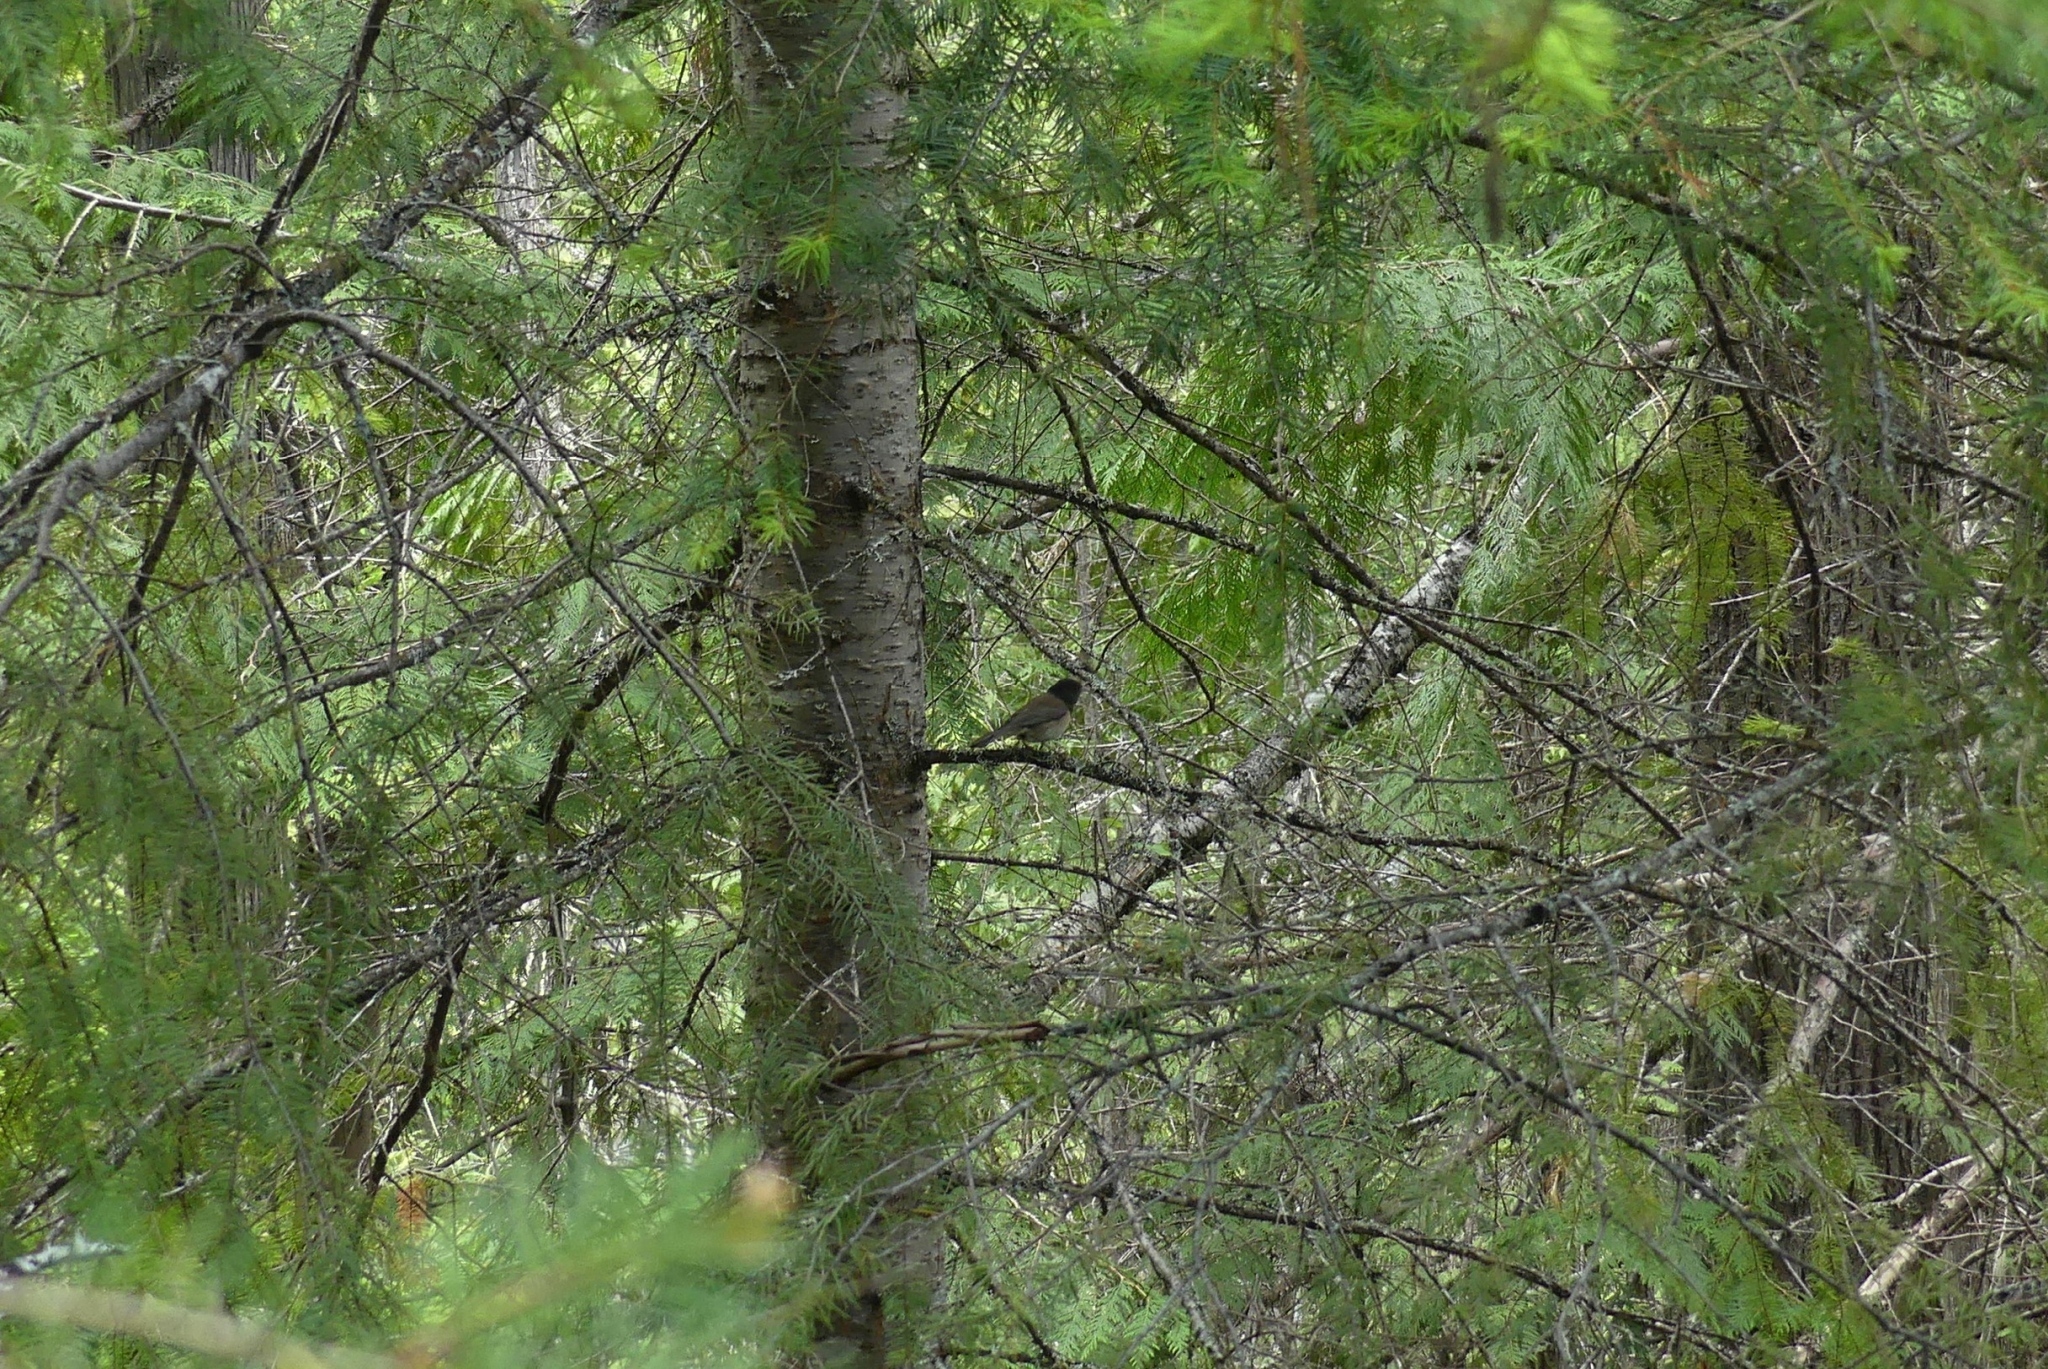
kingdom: Animalia
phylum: Chordata
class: Aves
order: Passeriformes
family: Passerellidae
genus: Junco
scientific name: Junco hyemalis
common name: Dark-eyed junco
